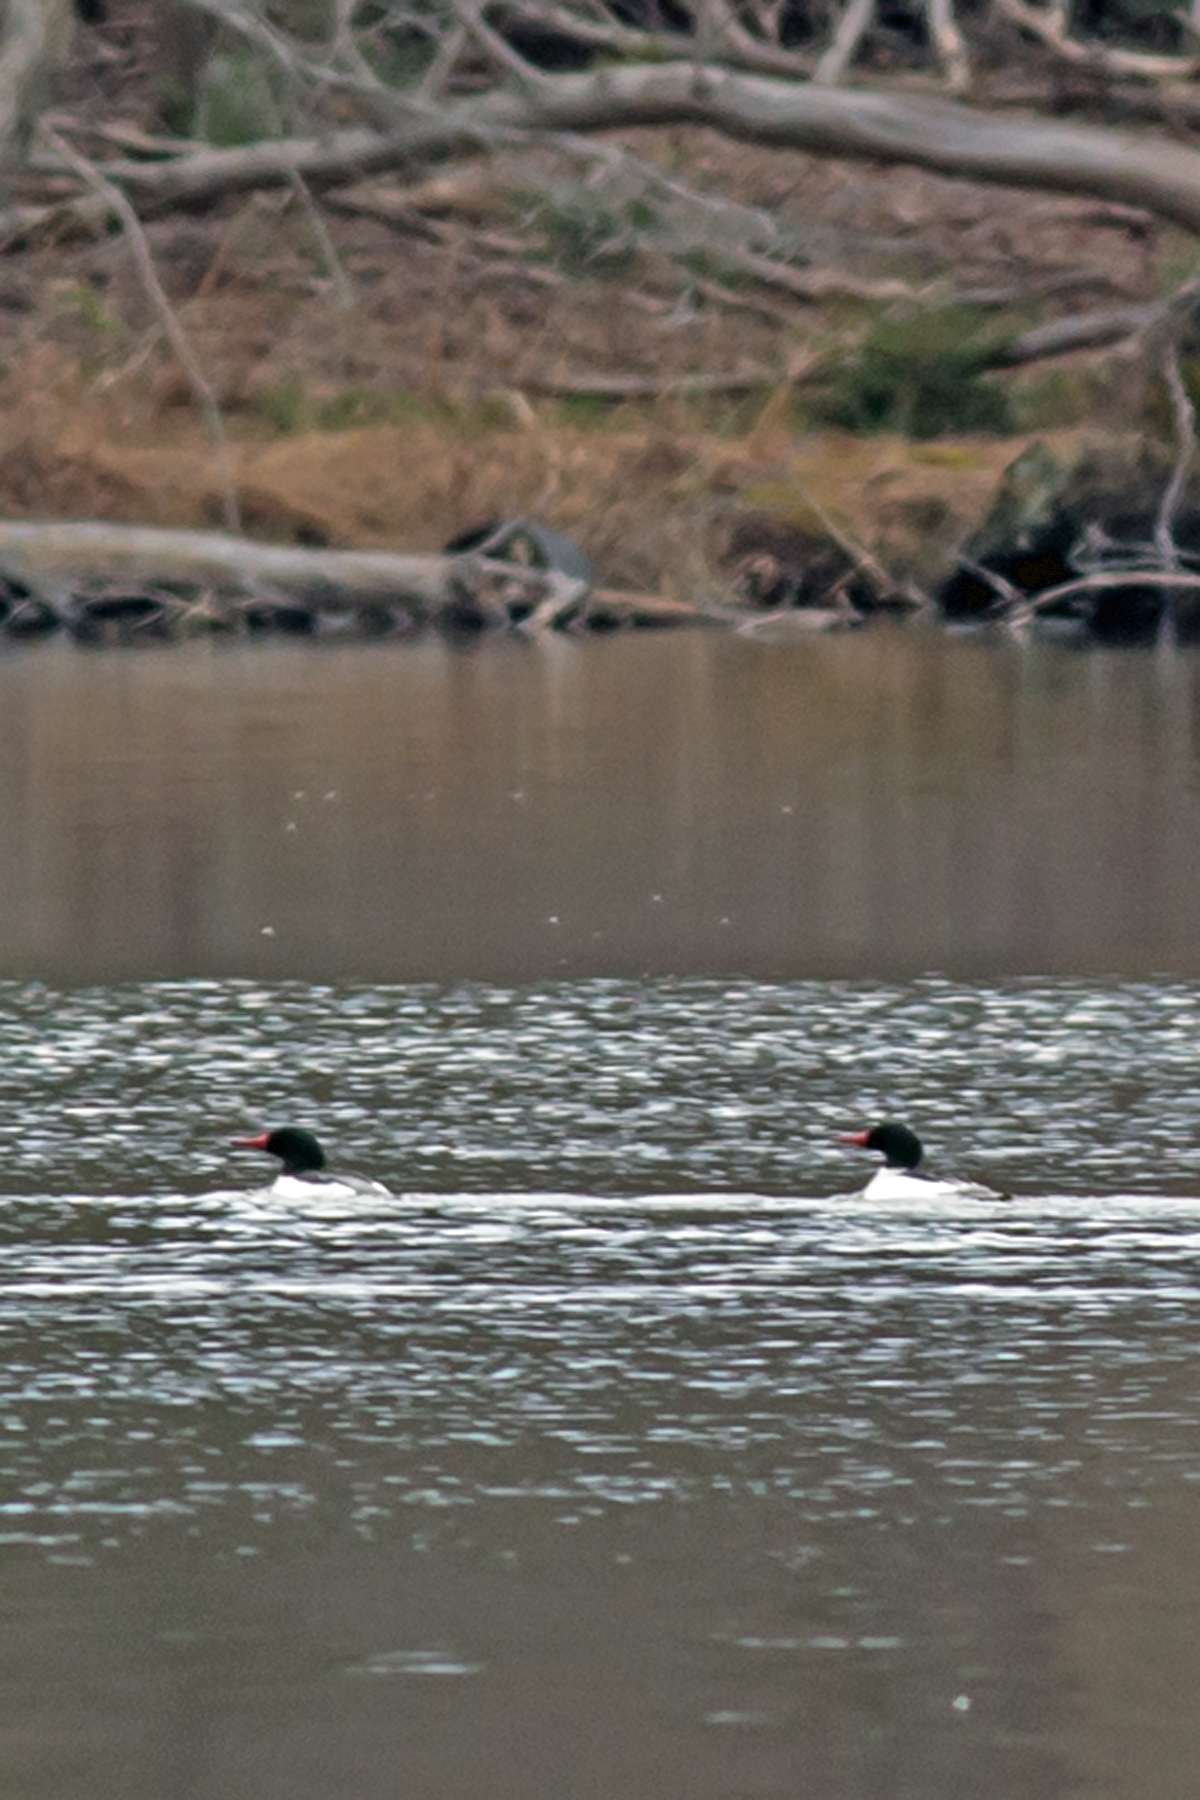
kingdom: Animalia
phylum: Chordata
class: Aves
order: Anseriformes
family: Anatidae
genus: Mergus
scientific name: Mergus merganser
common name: Common merganser
